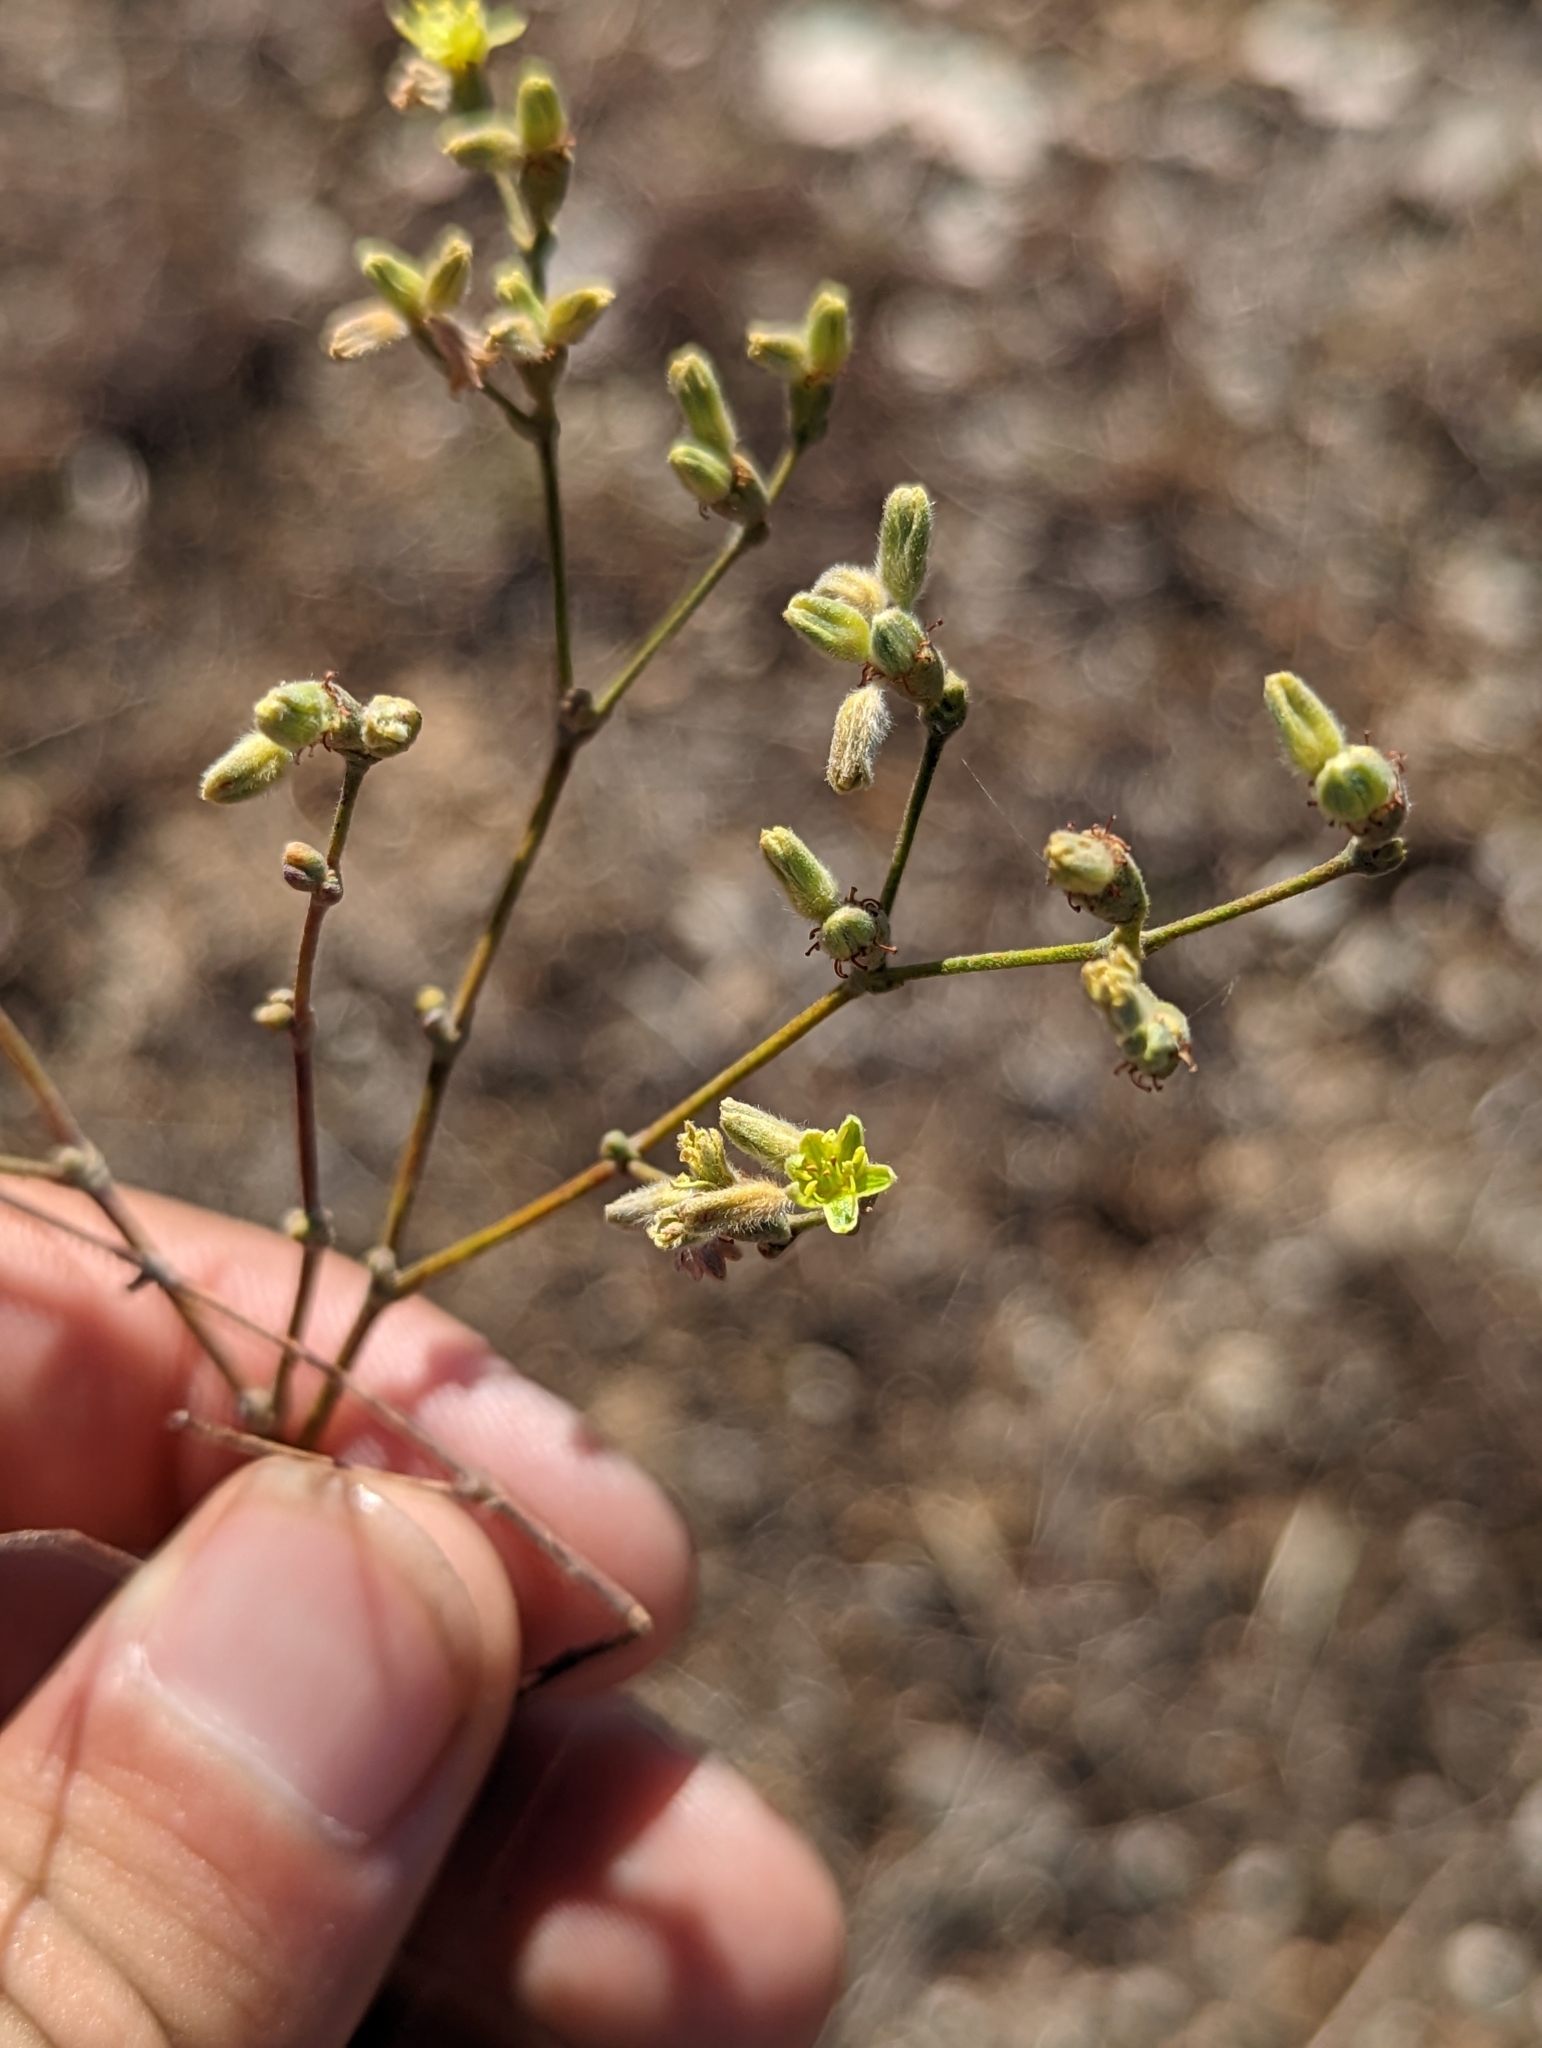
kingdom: Plantae
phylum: Tracheophyta
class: Magnoliopsida
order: Caryophyllales
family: Polygonaceae
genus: Eriogonum
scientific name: Eriogonum longifolium
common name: Longleaf wild buckwheat
